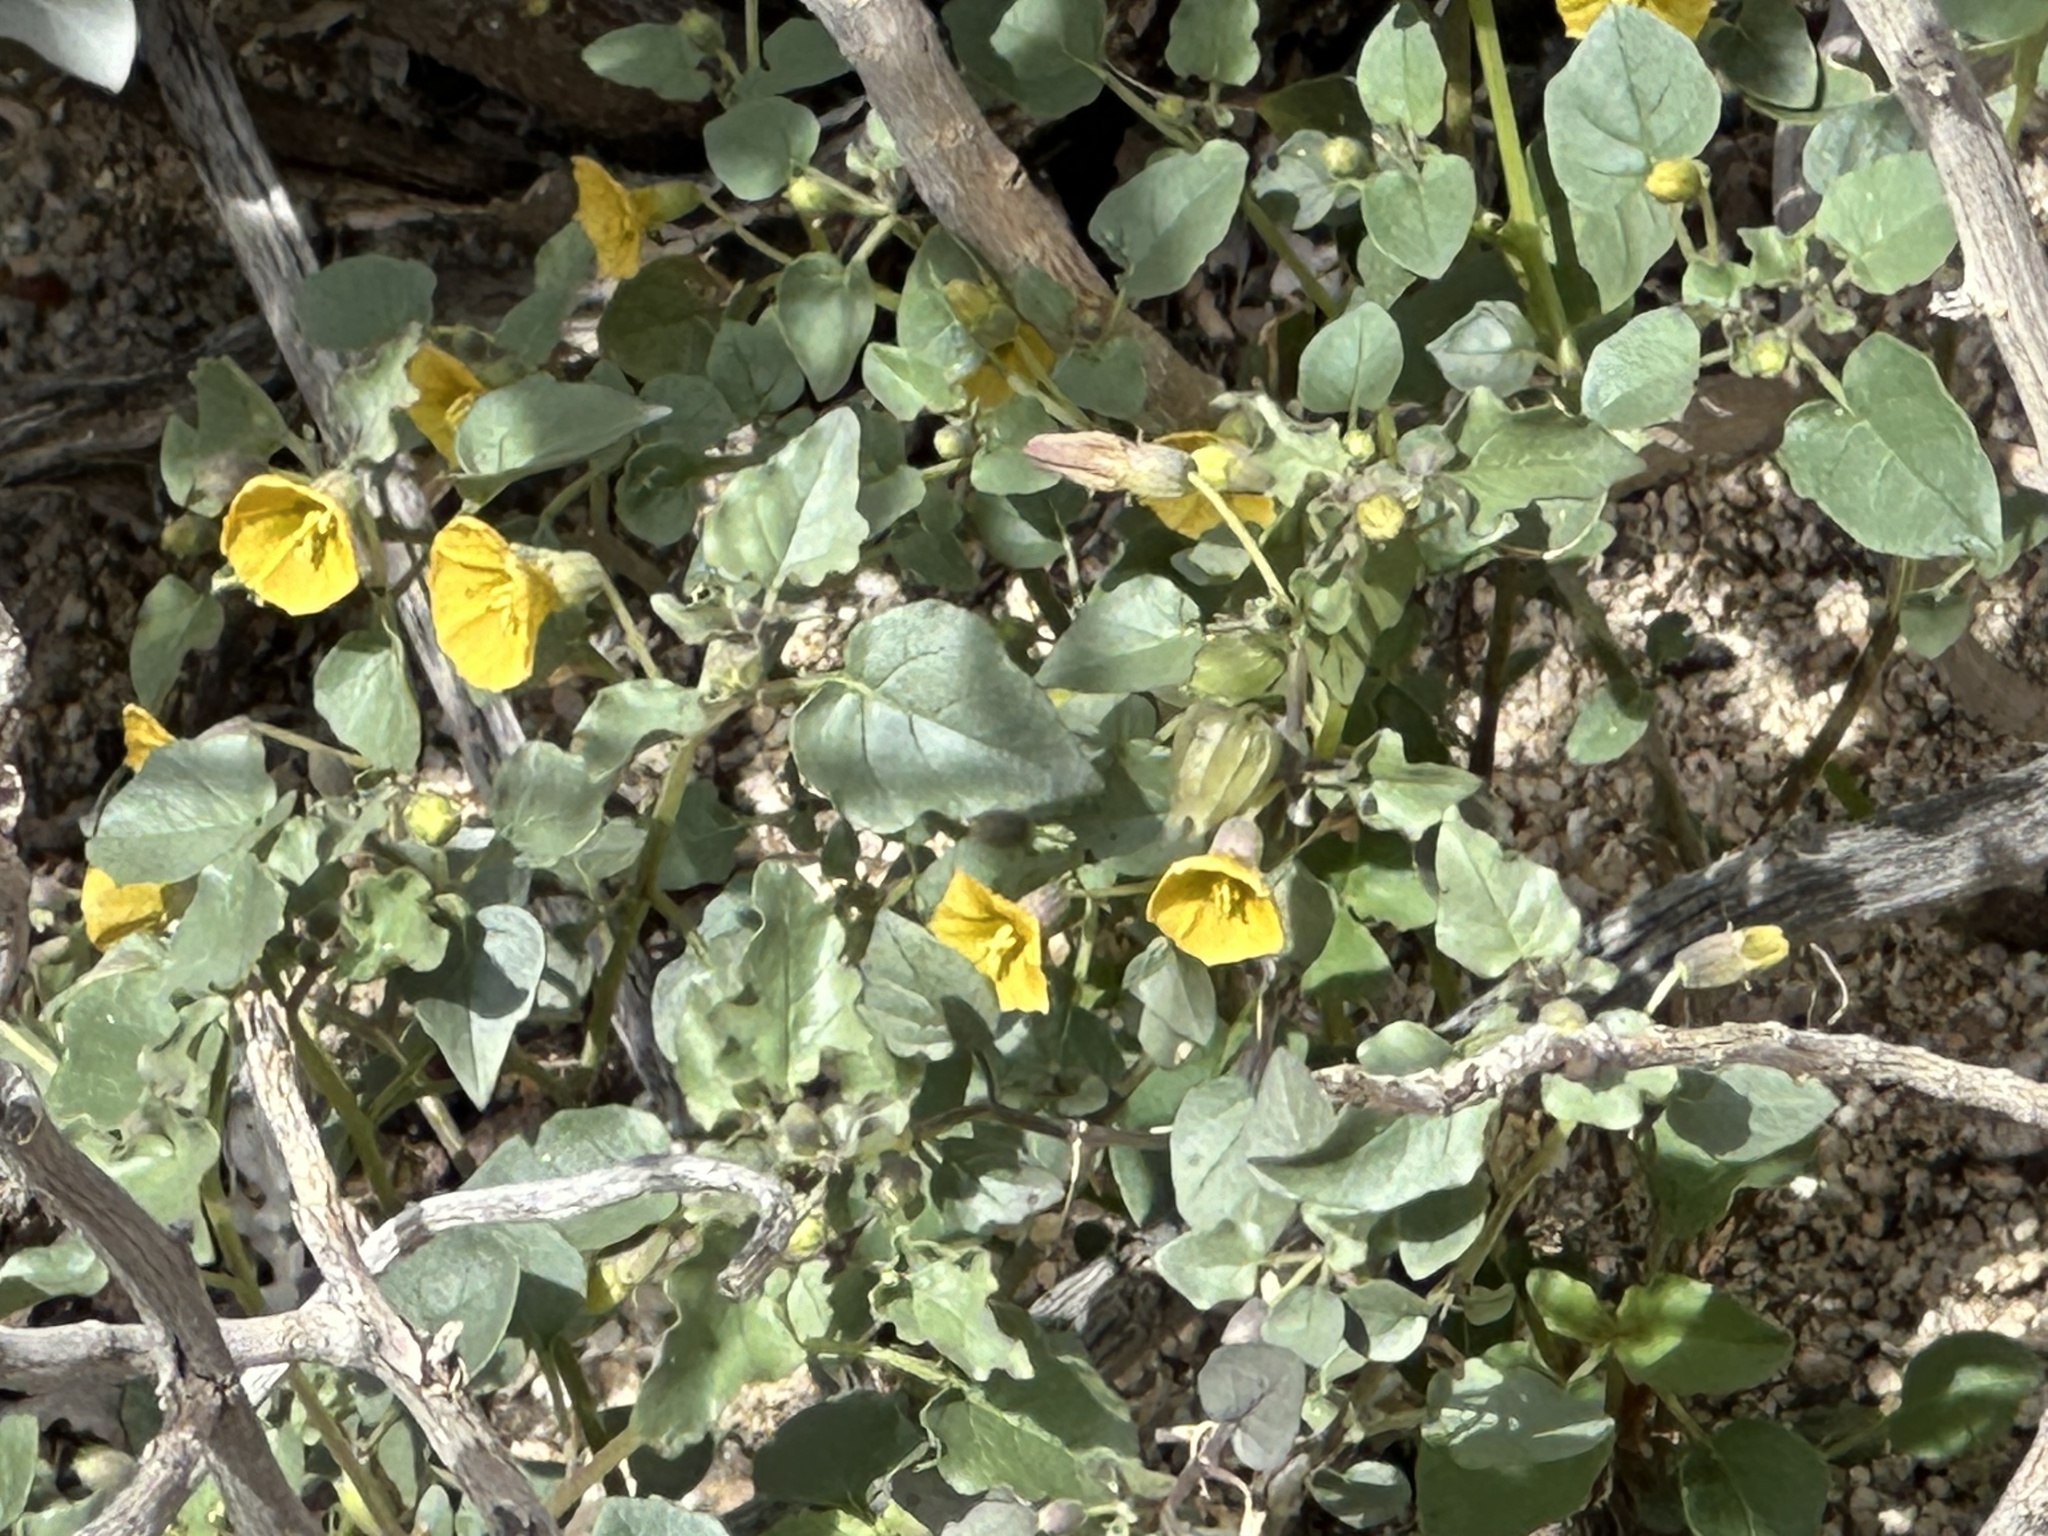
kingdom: Plantae
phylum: Tracheophyta
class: Magnoliopsida
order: Solanales
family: Solanaceae
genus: Physalis
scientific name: Physalis crassifolia
